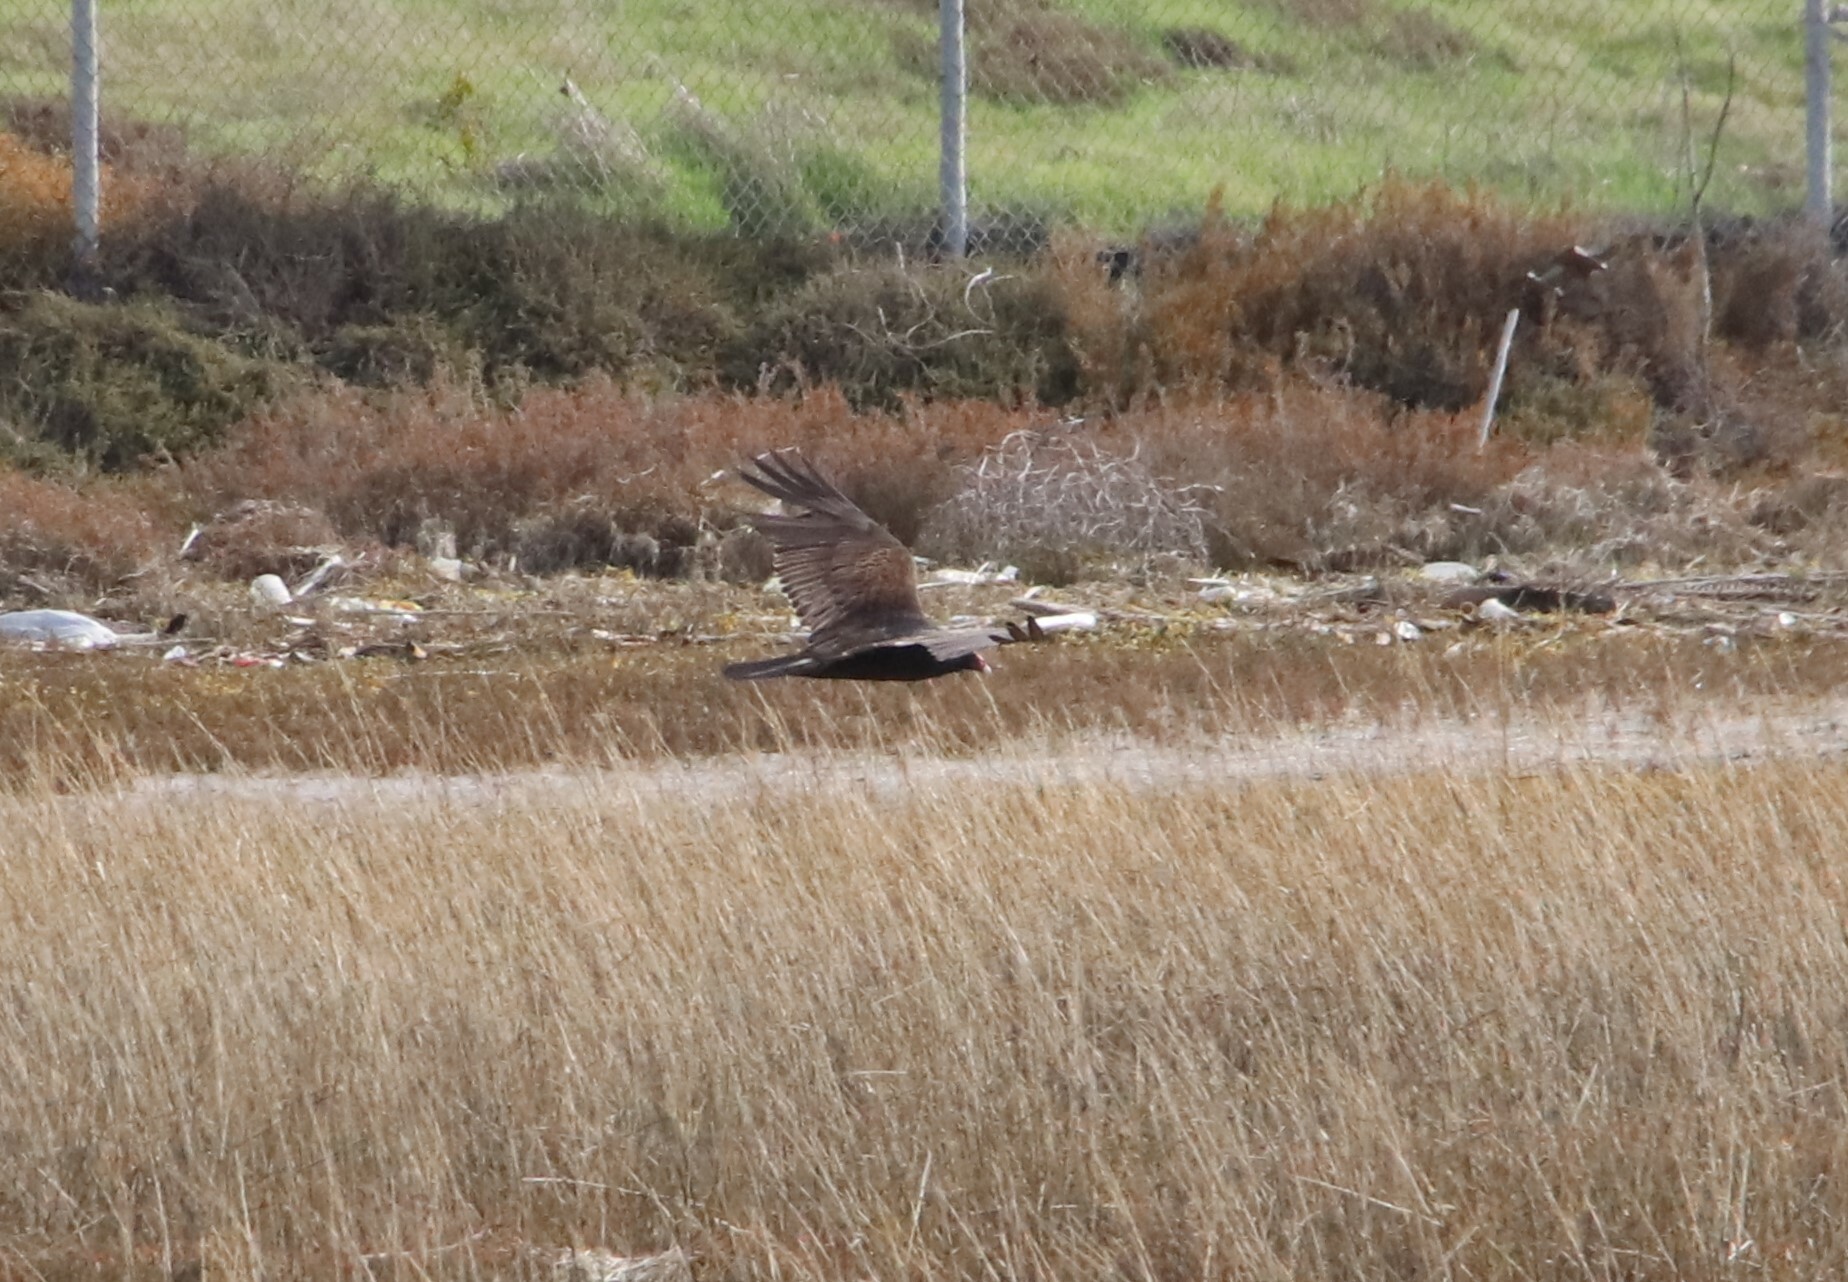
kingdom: Animalia
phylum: Chordata
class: Aves
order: Accipitriformes
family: Cathartidae
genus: Cathartes
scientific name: Cathartes aura
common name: Turkey vulture
